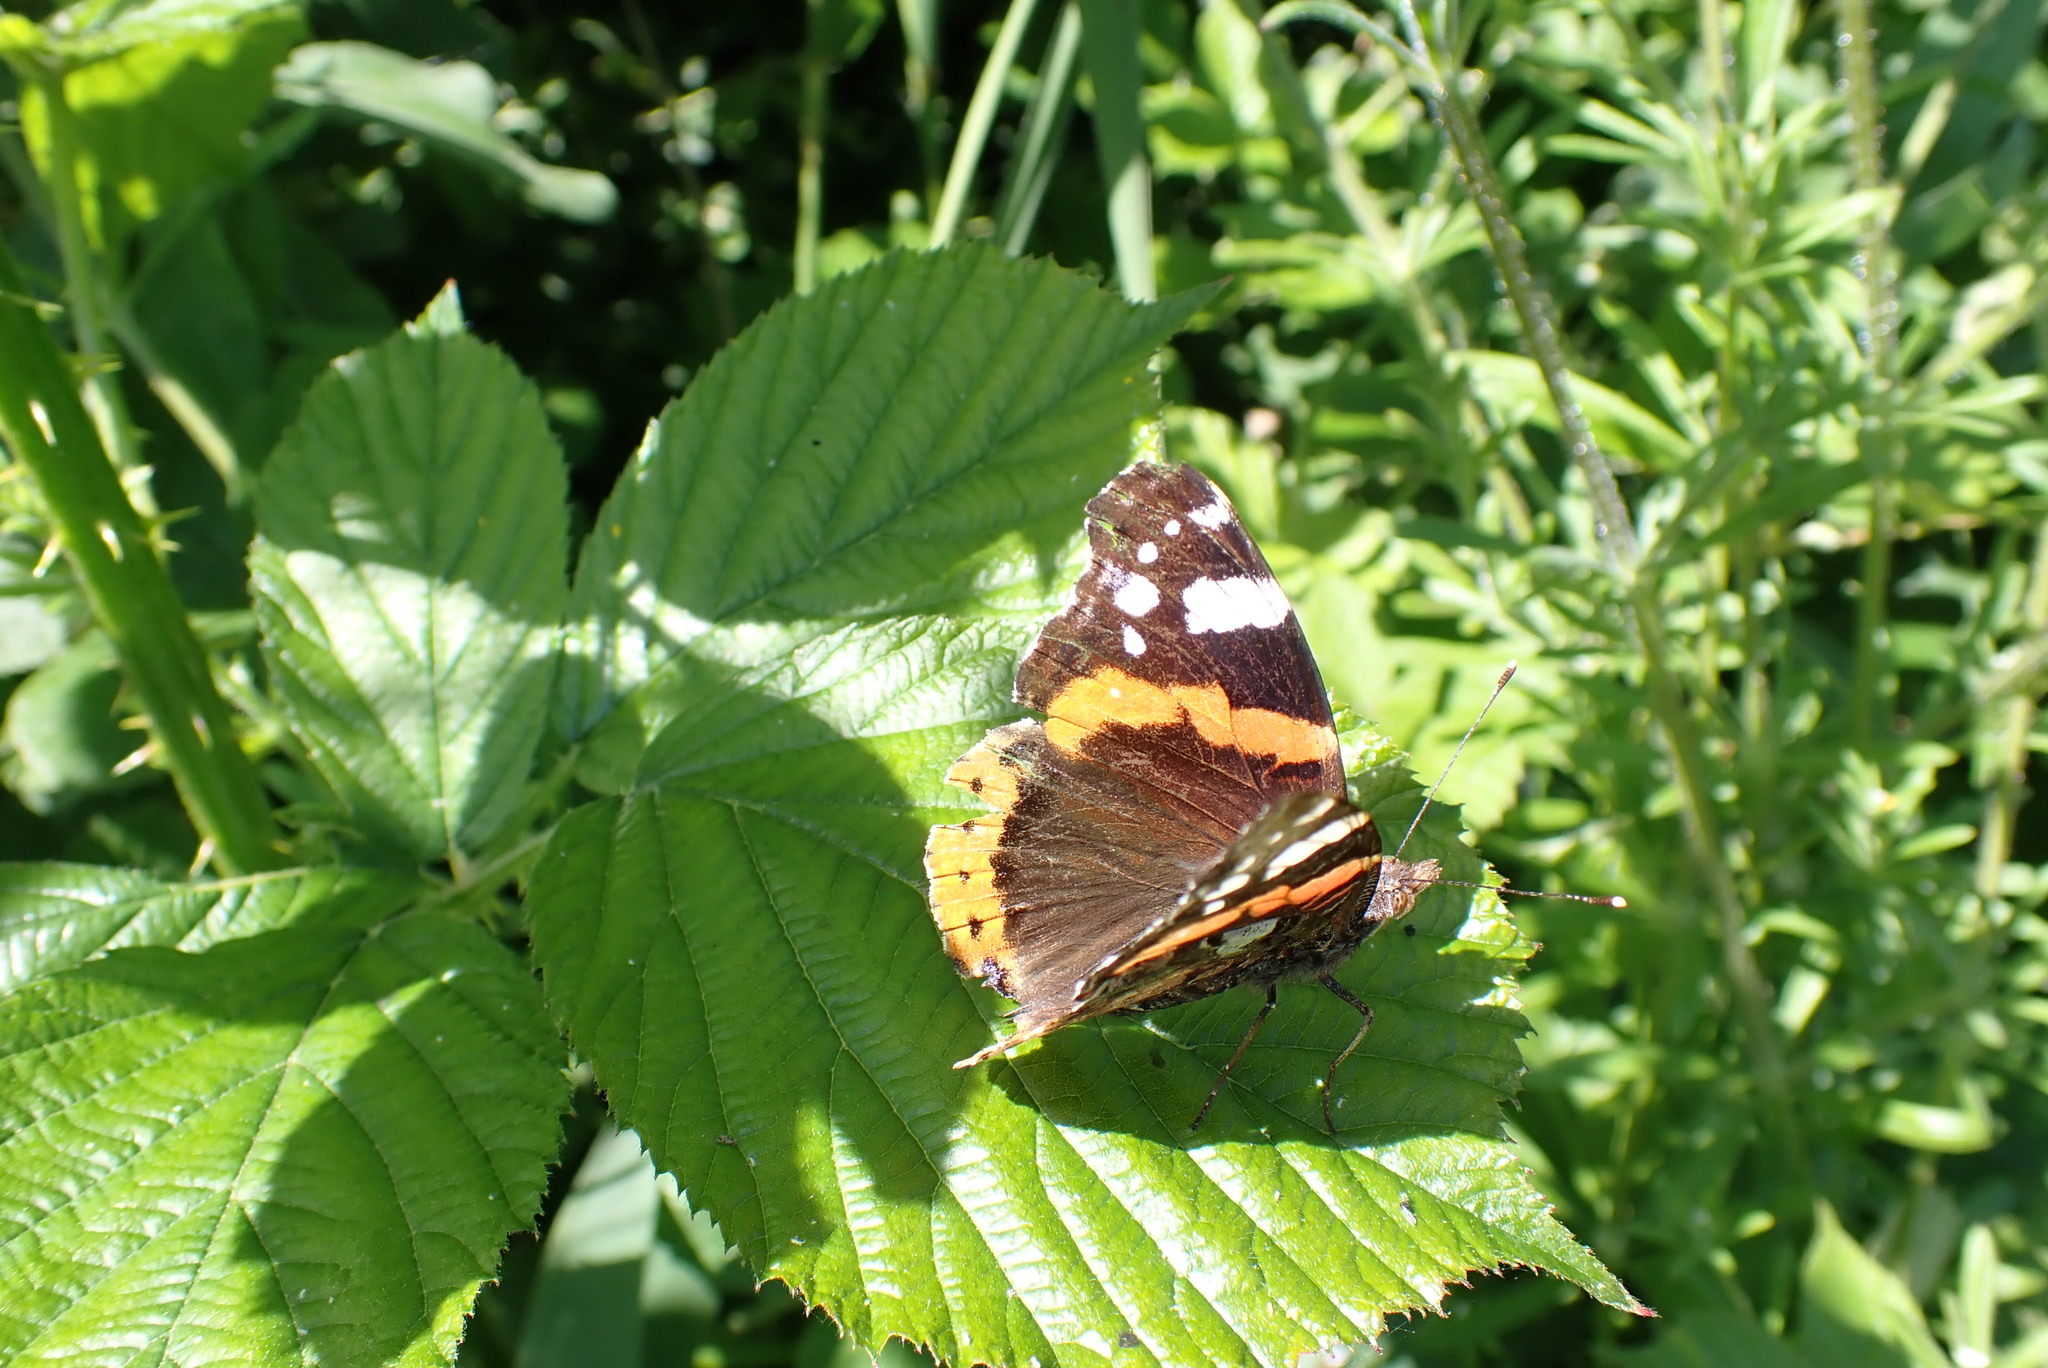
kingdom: Animalia
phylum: Arthropoda
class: Insecta
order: Lepidoptera
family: Nymphalidae
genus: Vanessa
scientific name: Vanessa atalanta
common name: Red admiral
